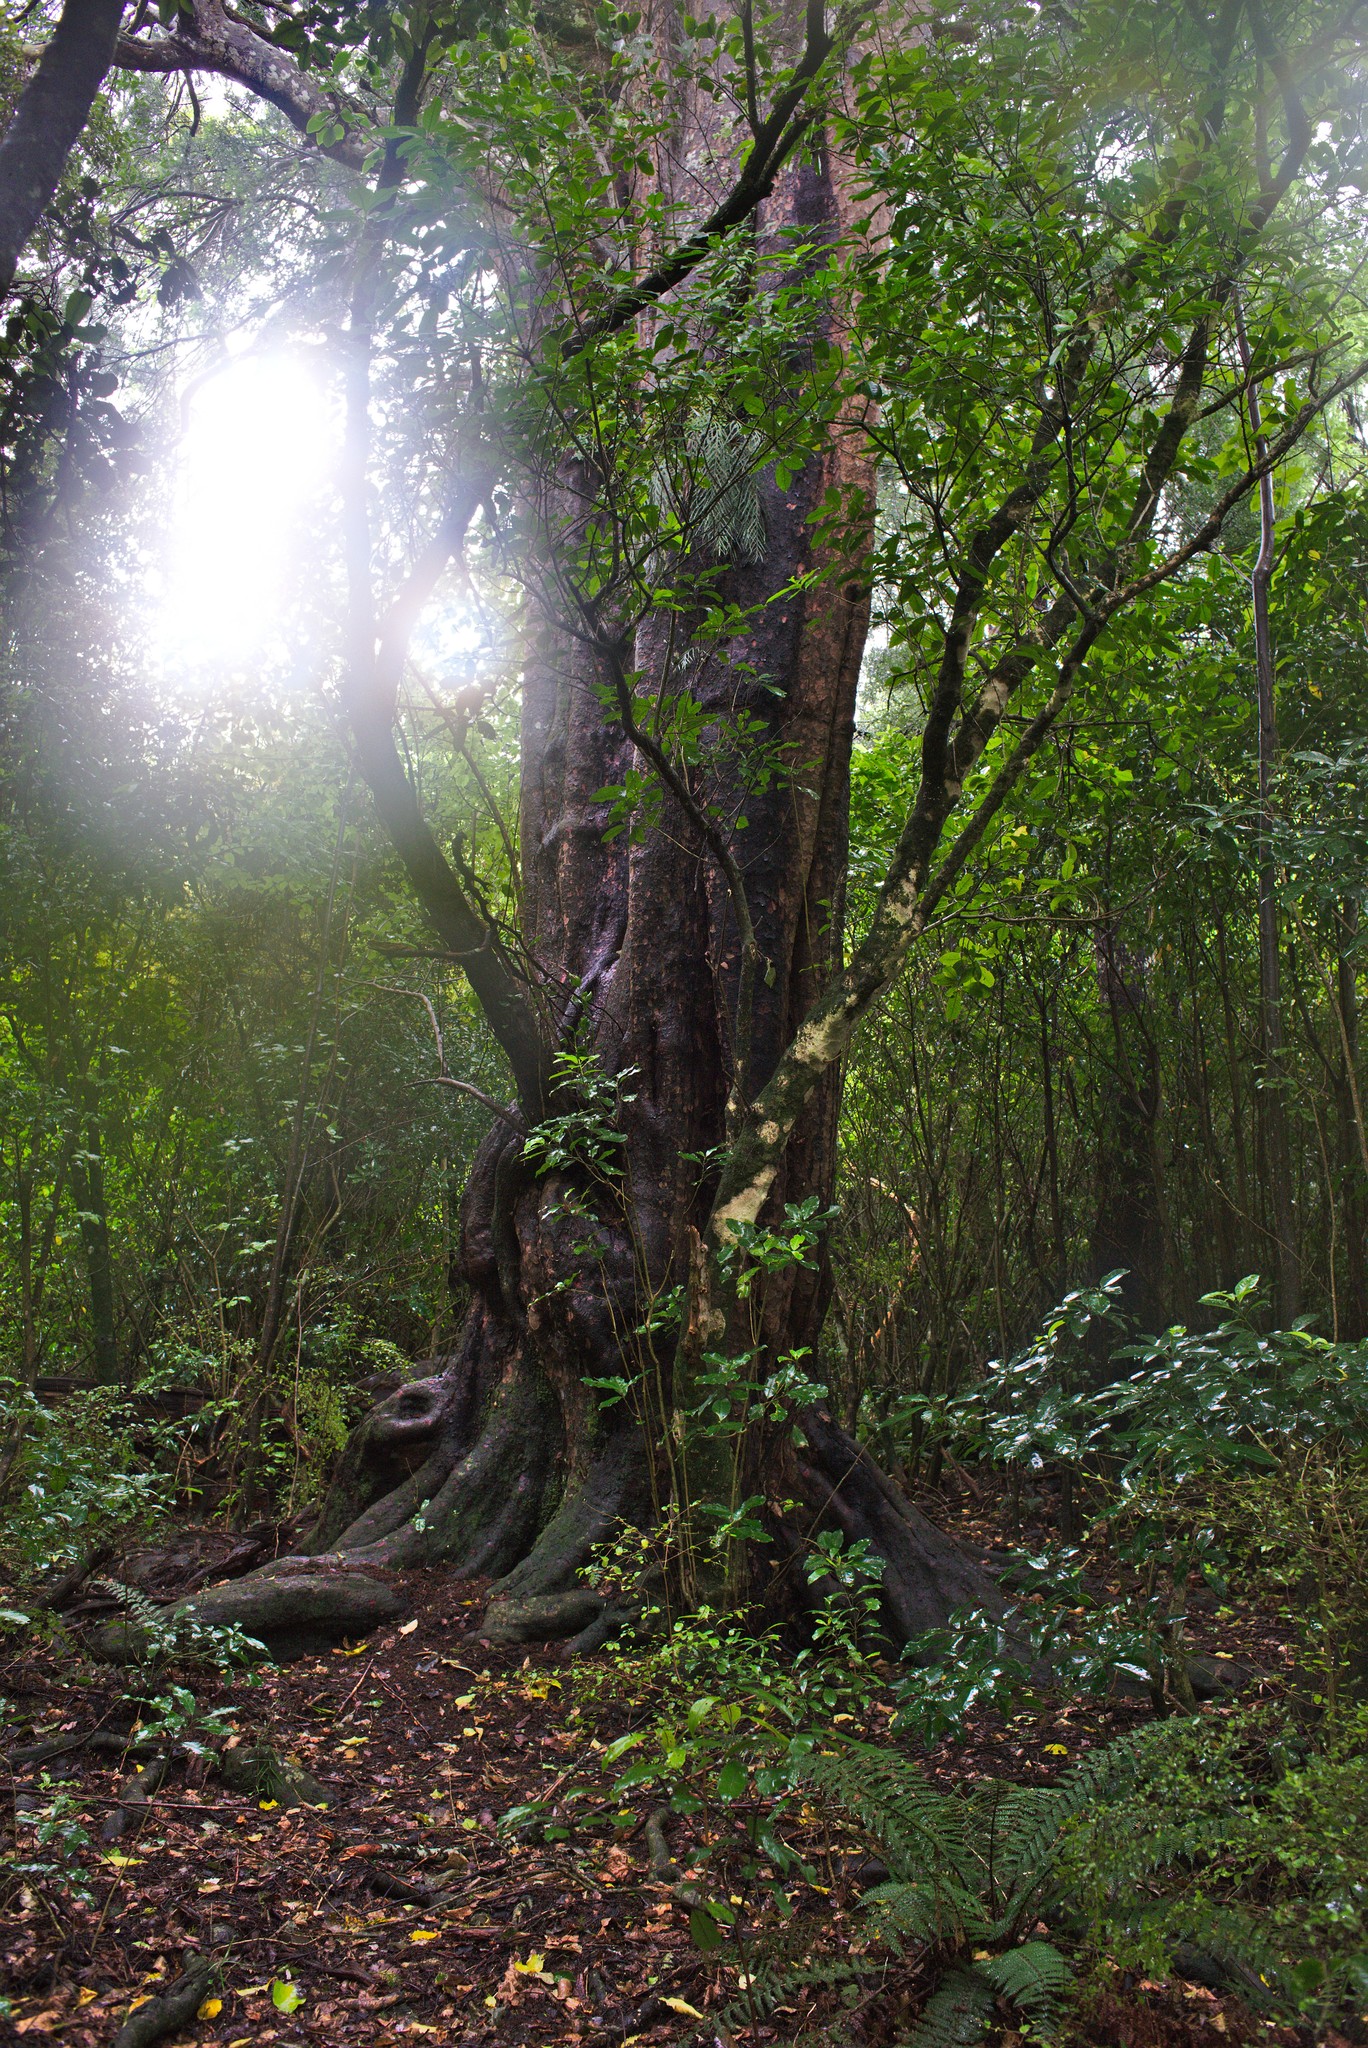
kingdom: Plantae
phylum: Tracheophyta
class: Pinopsida
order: Pinales
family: Podocarpaceae
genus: Prumnopitys
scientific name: Prumnopitys taxifolia
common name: Matai
